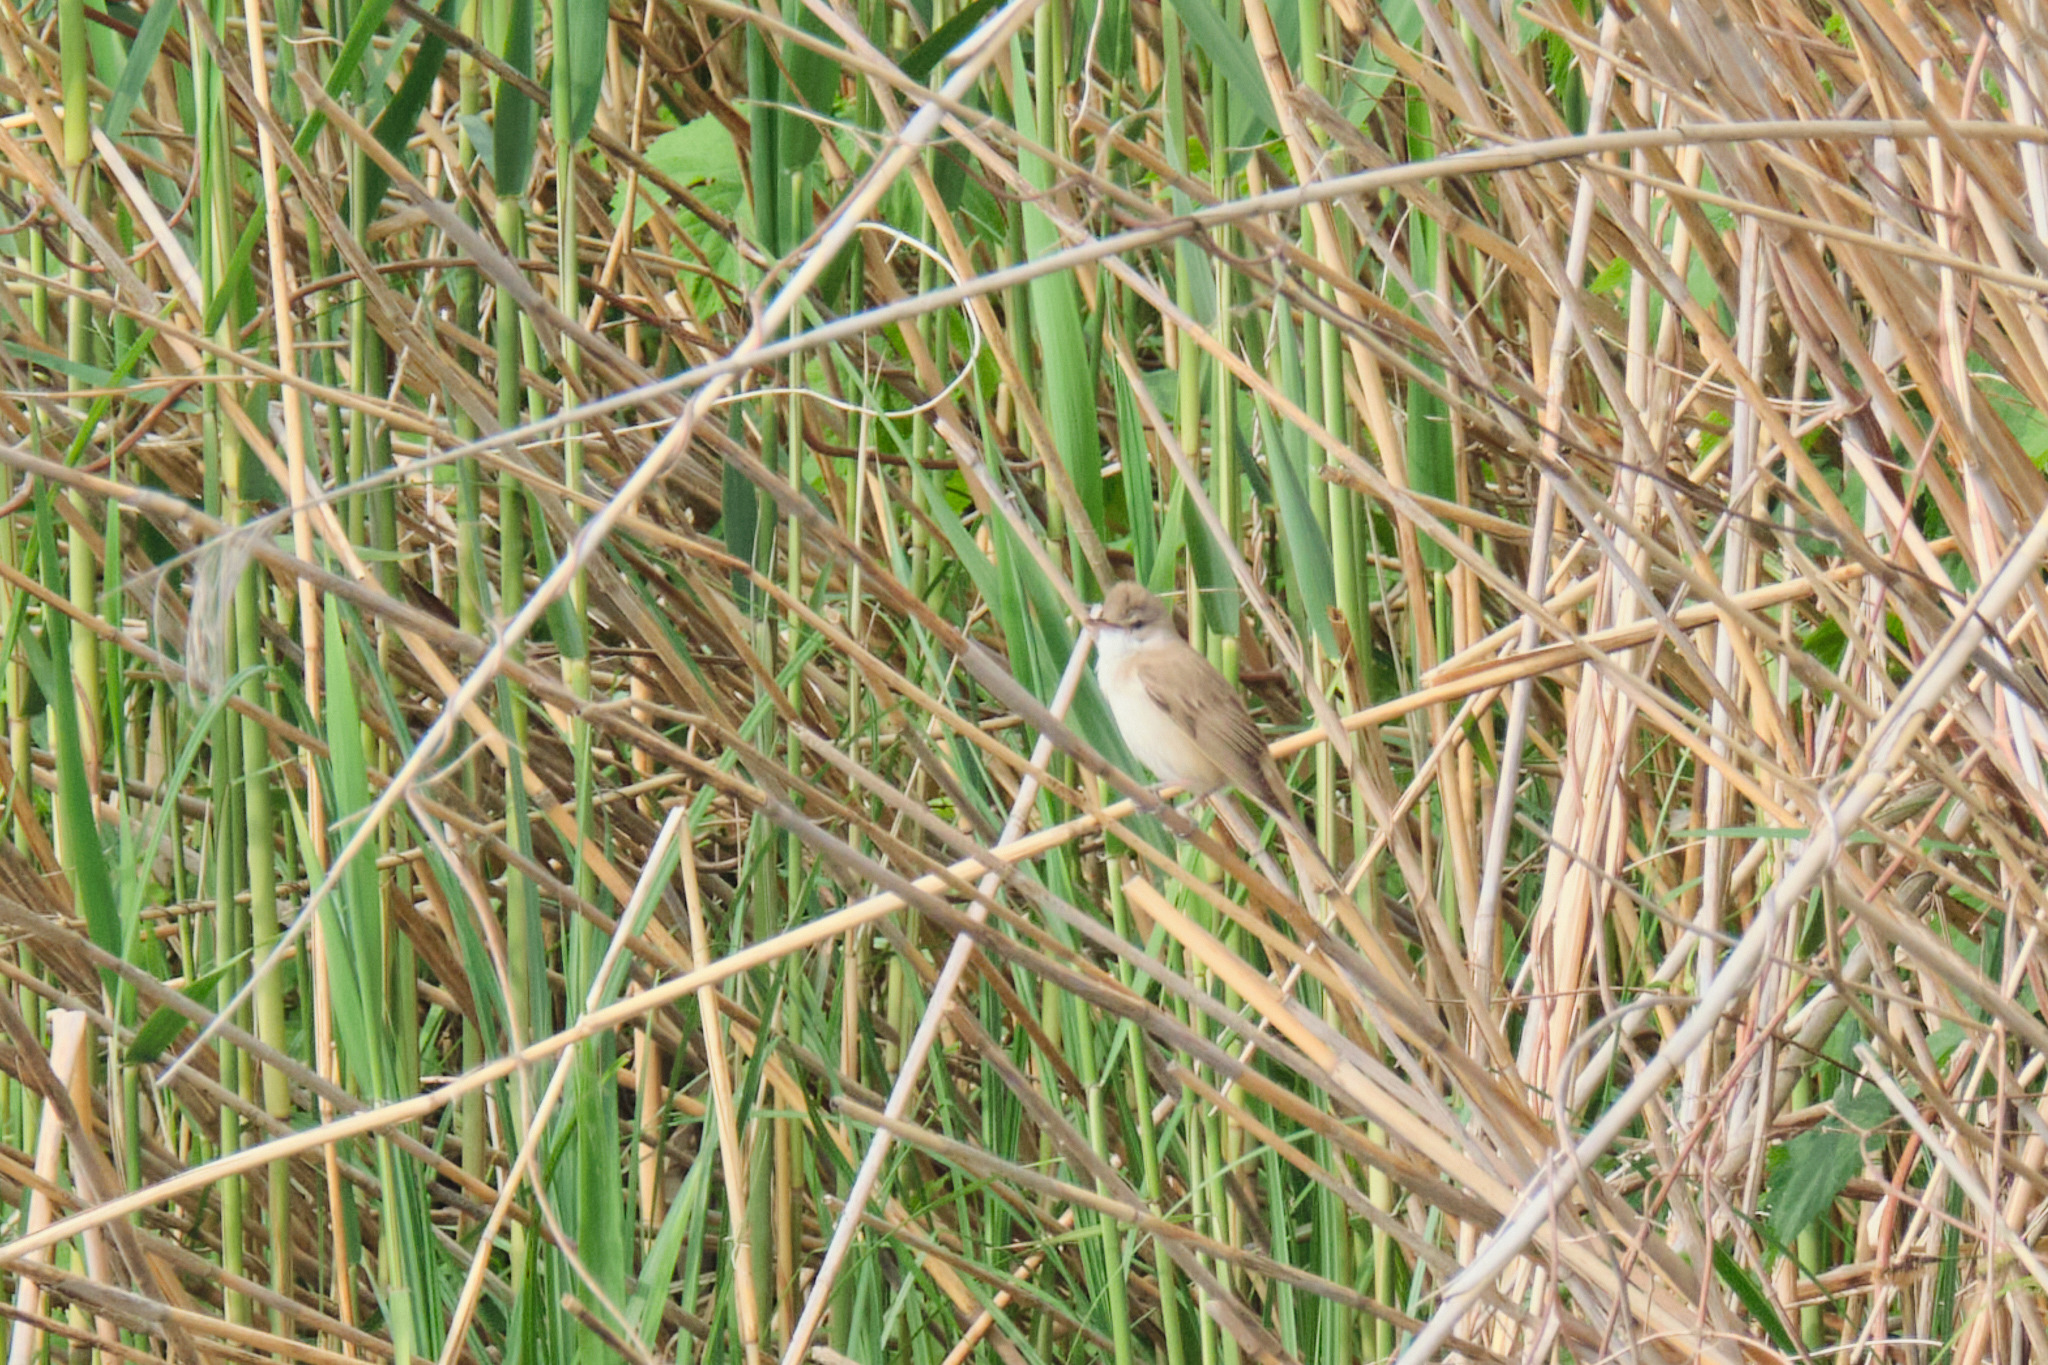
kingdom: Animalia
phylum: Chordata
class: Aves
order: Passeriformes
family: Acrocephalidae
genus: Acrocephalus
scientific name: Acrocephalus scirpaceus
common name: Eurasian reed warbler
